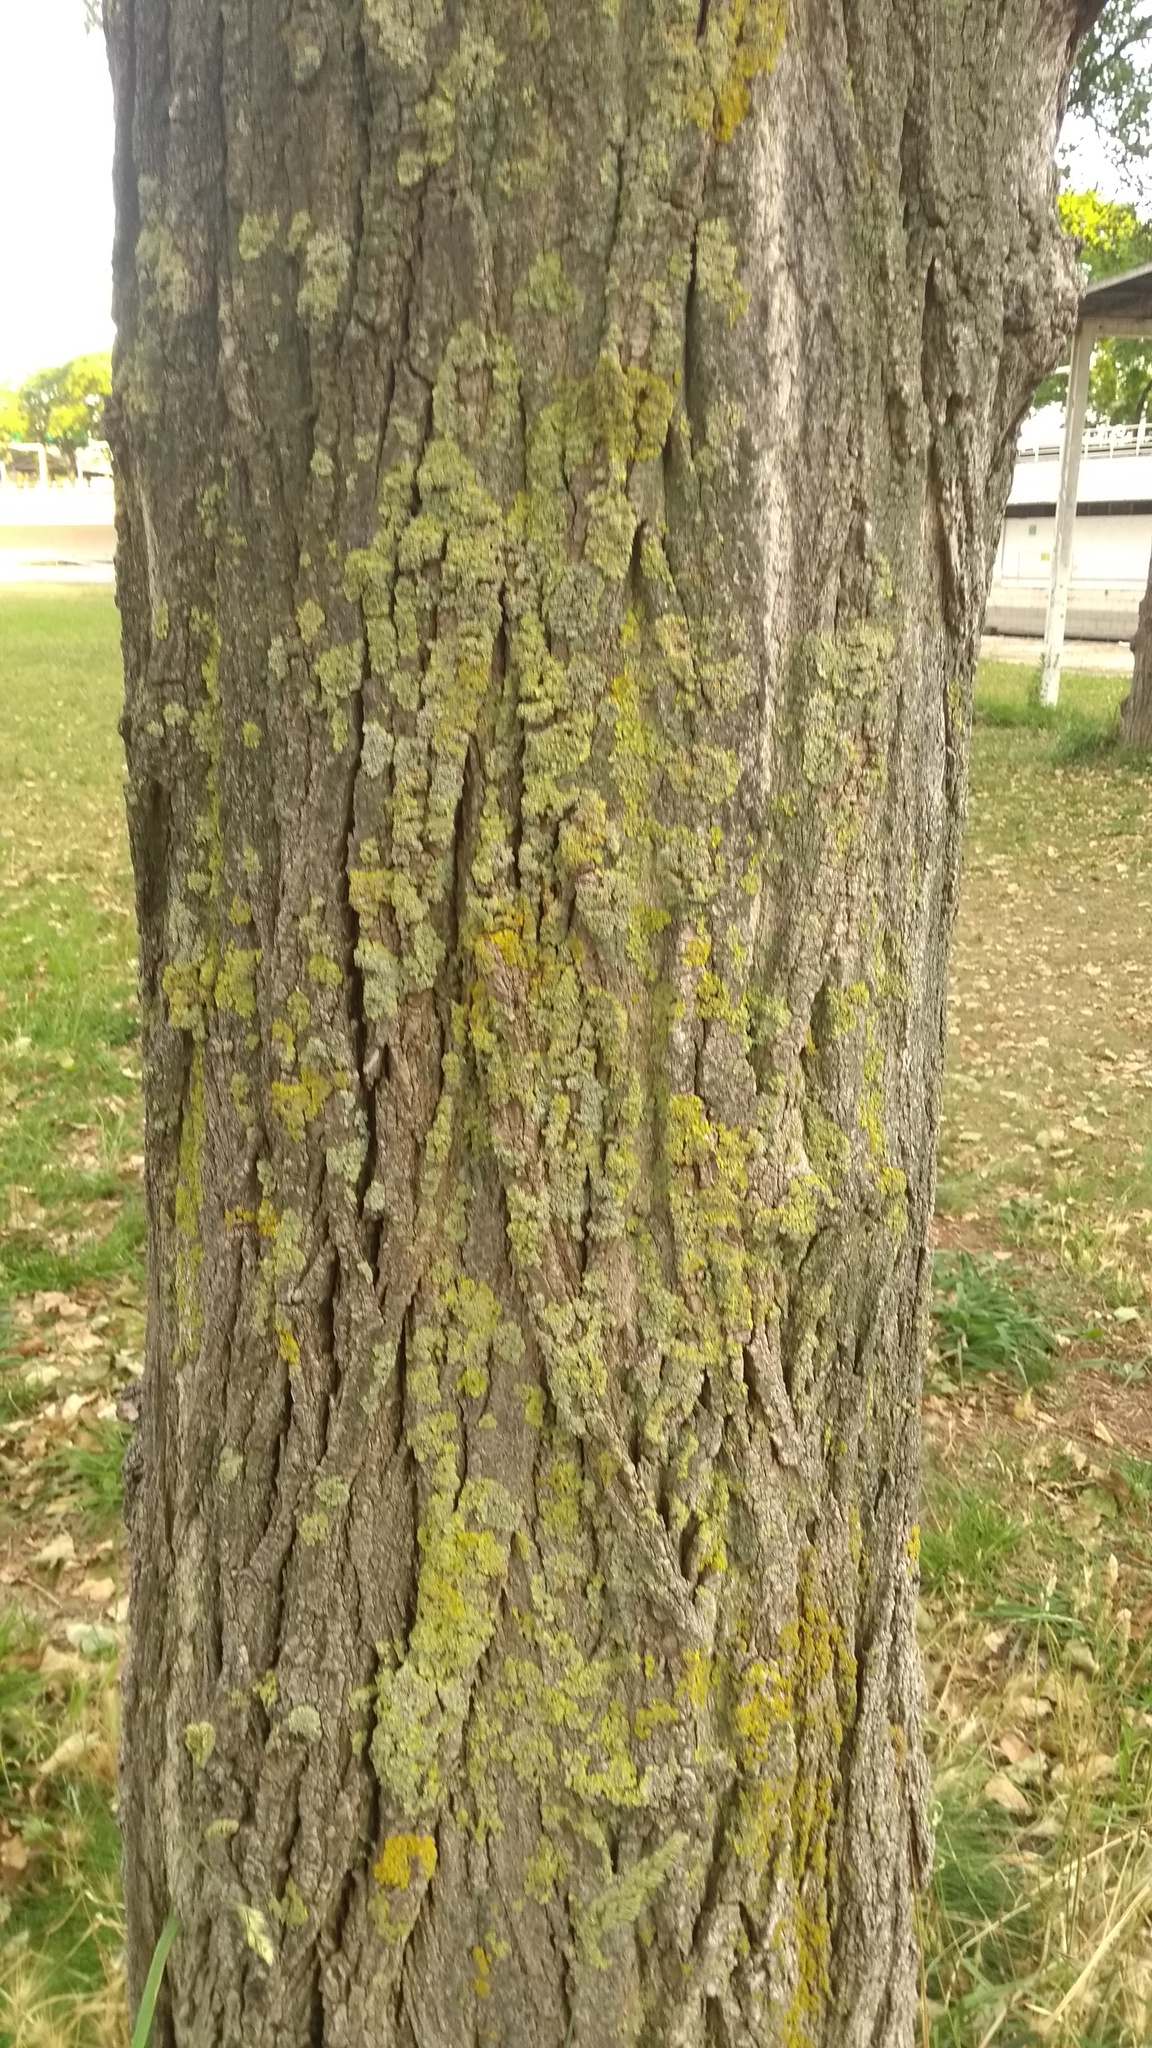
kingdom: Fungi
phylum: Ascomycota
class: Lecanoromycetes
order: Teloschistales
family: Teloschistaceae
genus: Xanthoria
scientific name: Xanthoria parietina
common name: Common orange lichen
